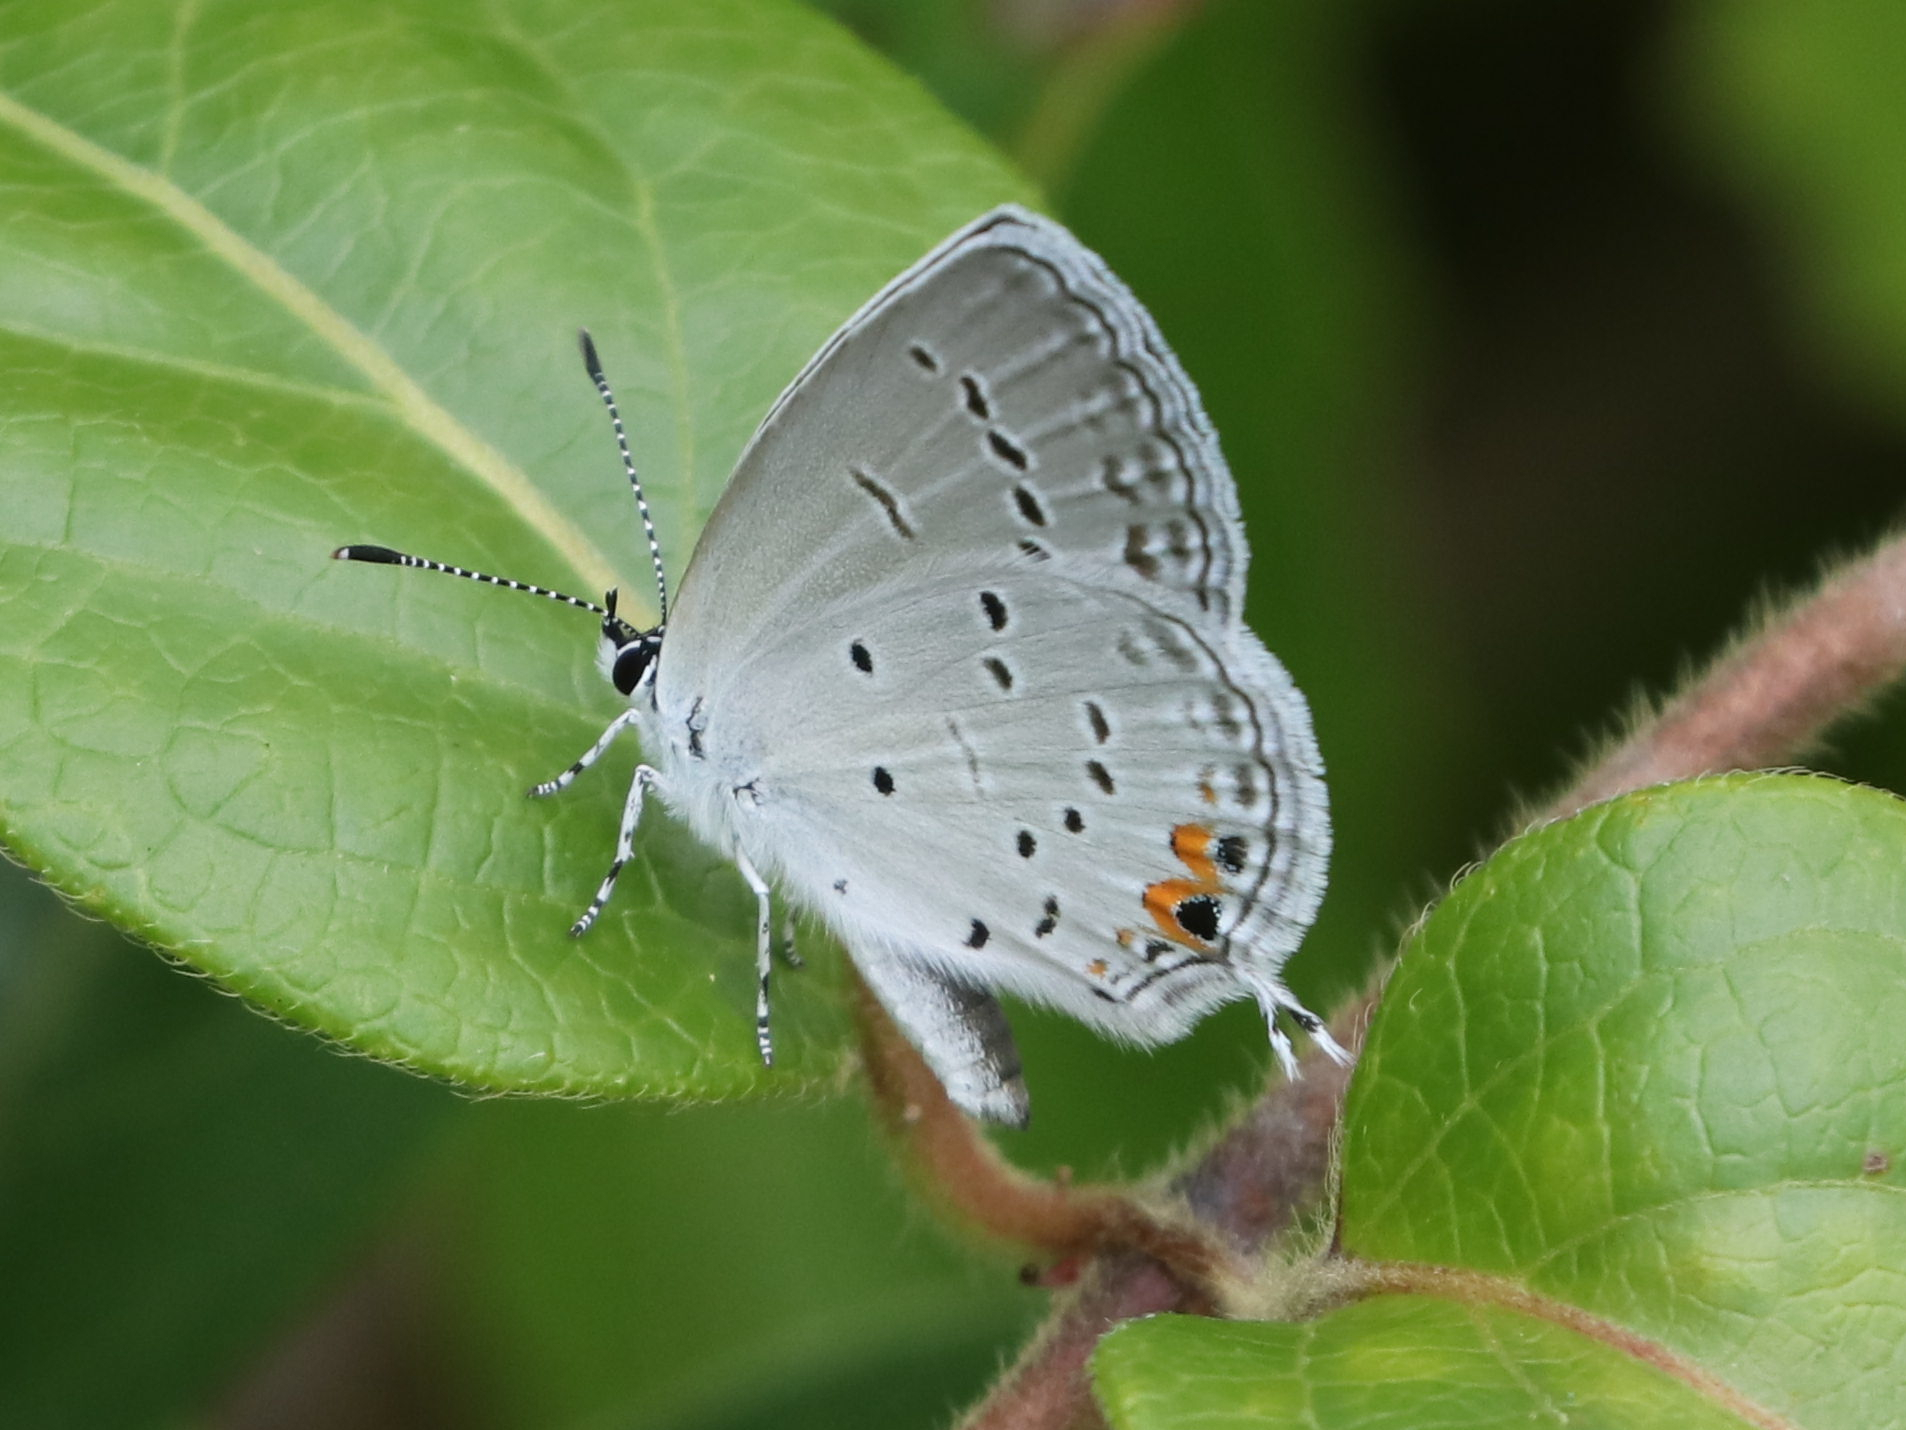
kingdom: Animalia
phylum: Arthropoda
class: Insecta
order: Lepidoptera
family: Lycaenidae
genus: Elkalyce
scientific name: Elkalyce comyntas
